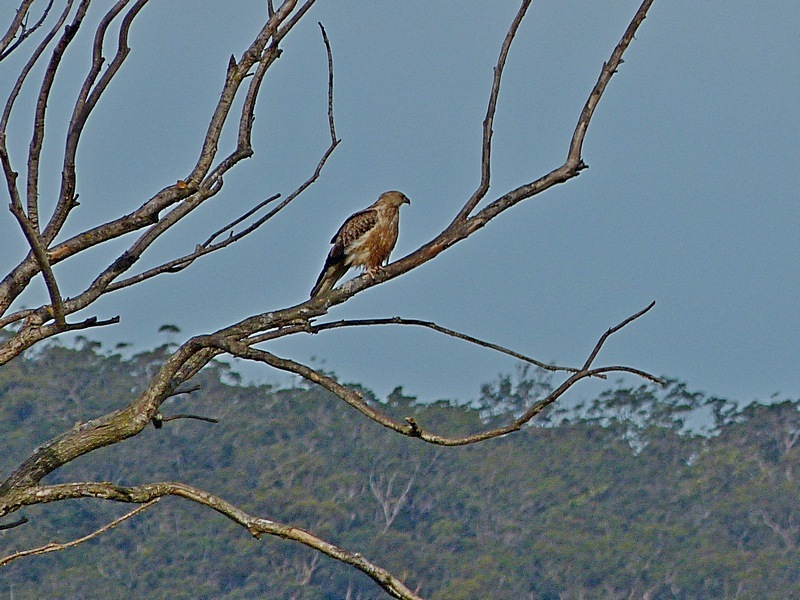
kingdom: Animalia
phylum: Chordata
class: Aves
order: Accipitriformes
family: Accipitridae
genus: Haliastur
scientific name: Haliastur sphenurus
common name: Whistling kite
